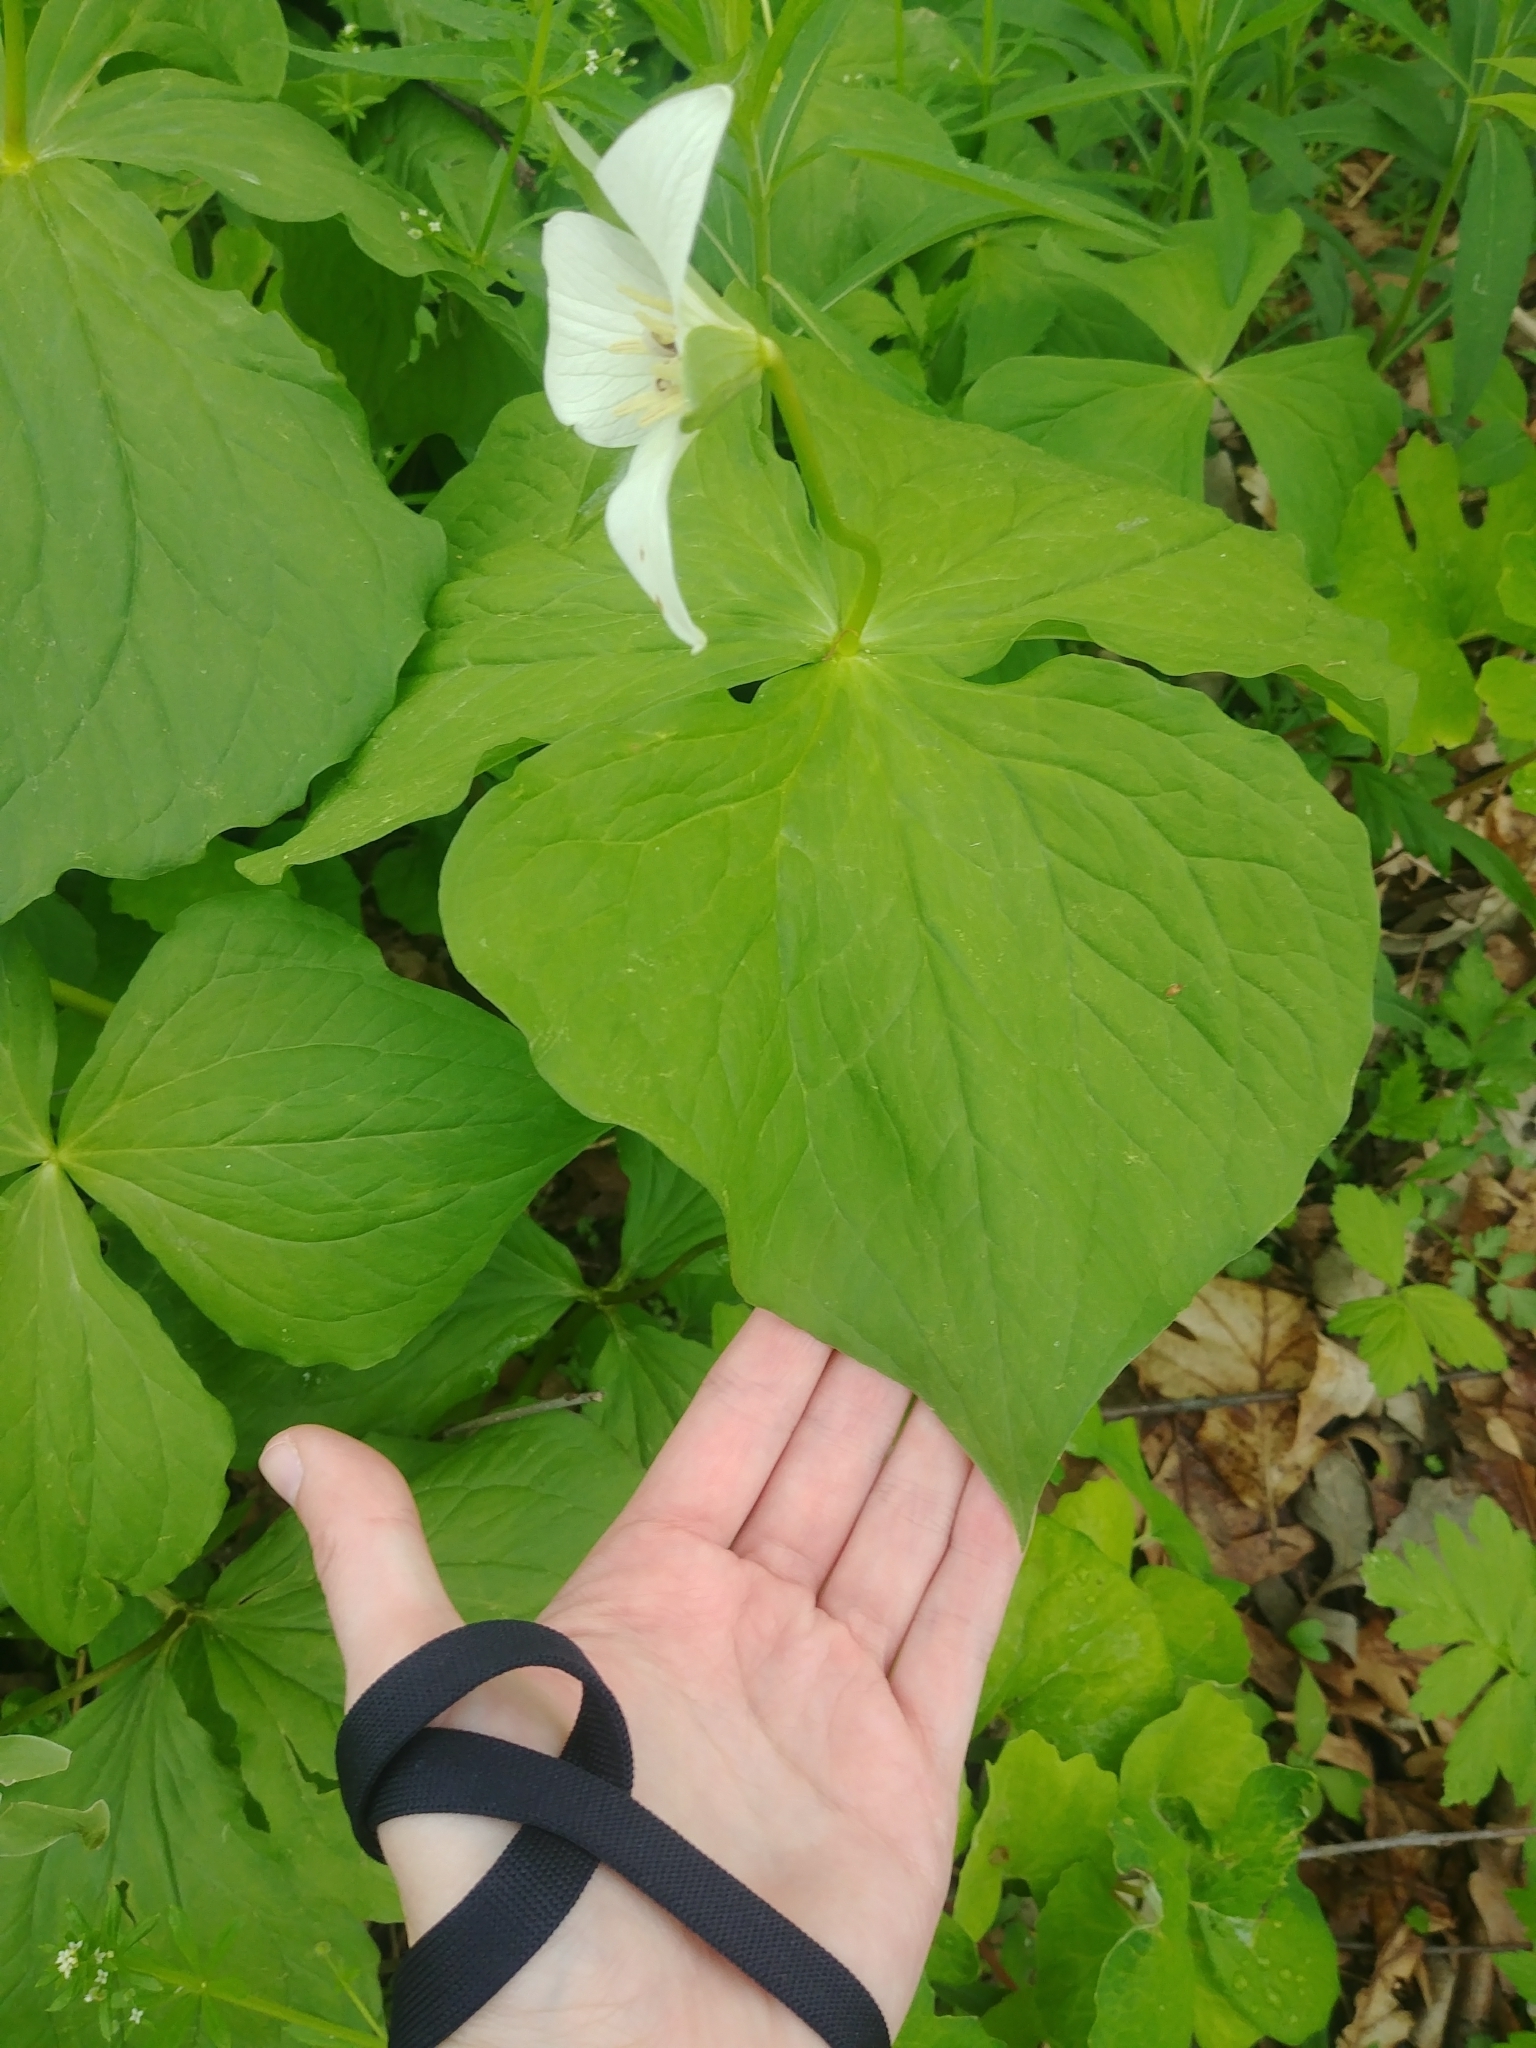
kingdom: Plantae
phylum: Tracheophyta
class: Liliopsida
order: Liliales
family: Melanthiaceae
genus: Trillium
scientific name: Trillium erectum
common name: Purple trillium
